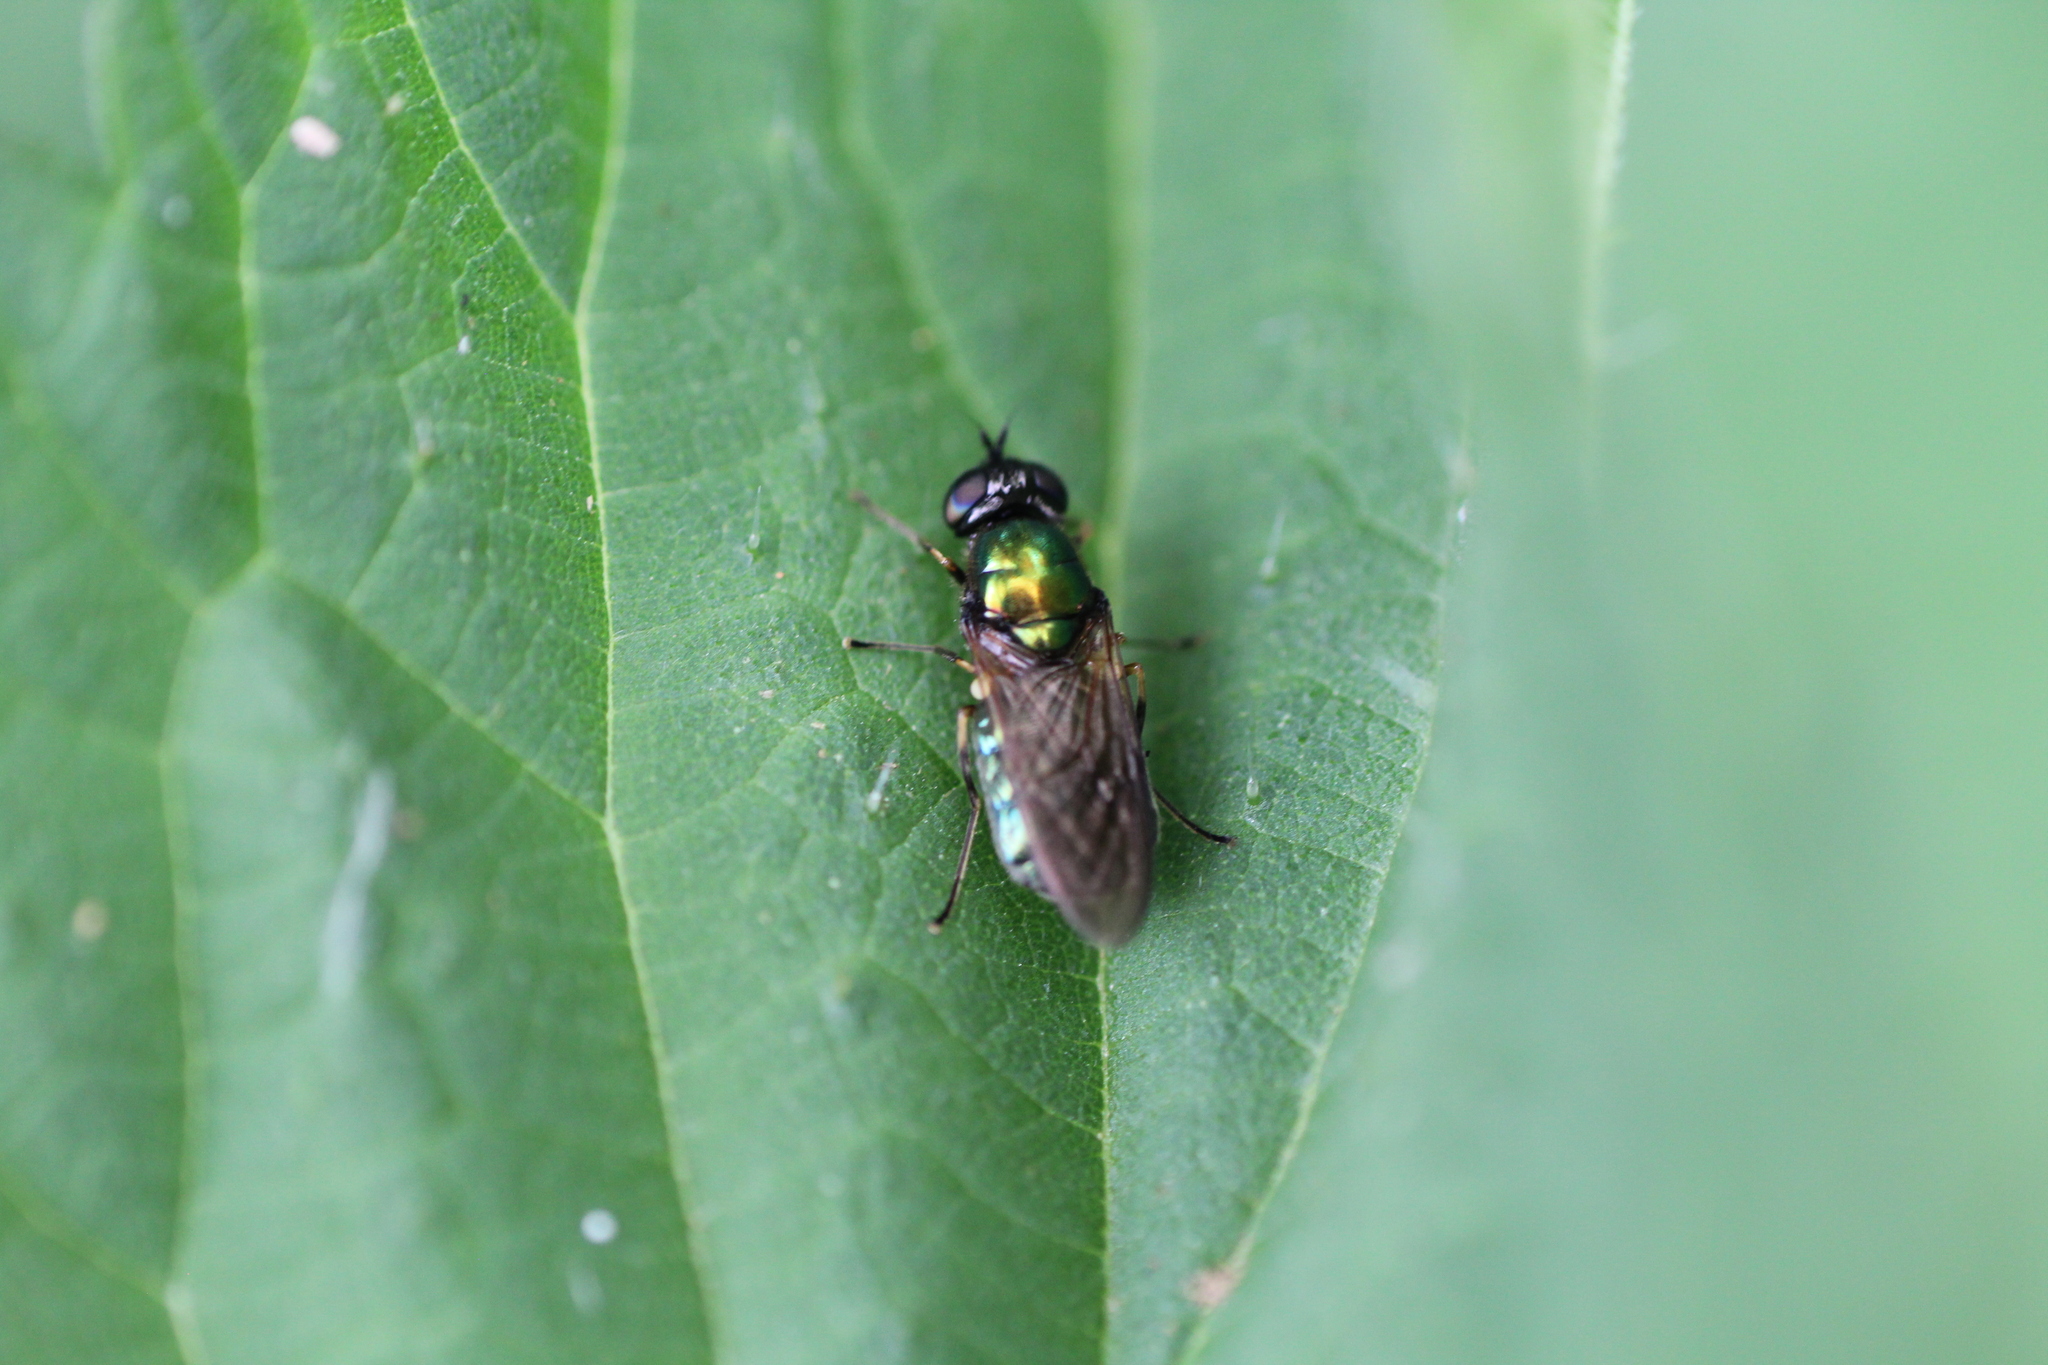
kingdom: Animalia
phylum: Arthropoda
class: Insecta
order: Diptera
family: Stratiomyidae
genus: Chloromyia
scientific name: Chloromyia formosa
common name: Soldier fly
